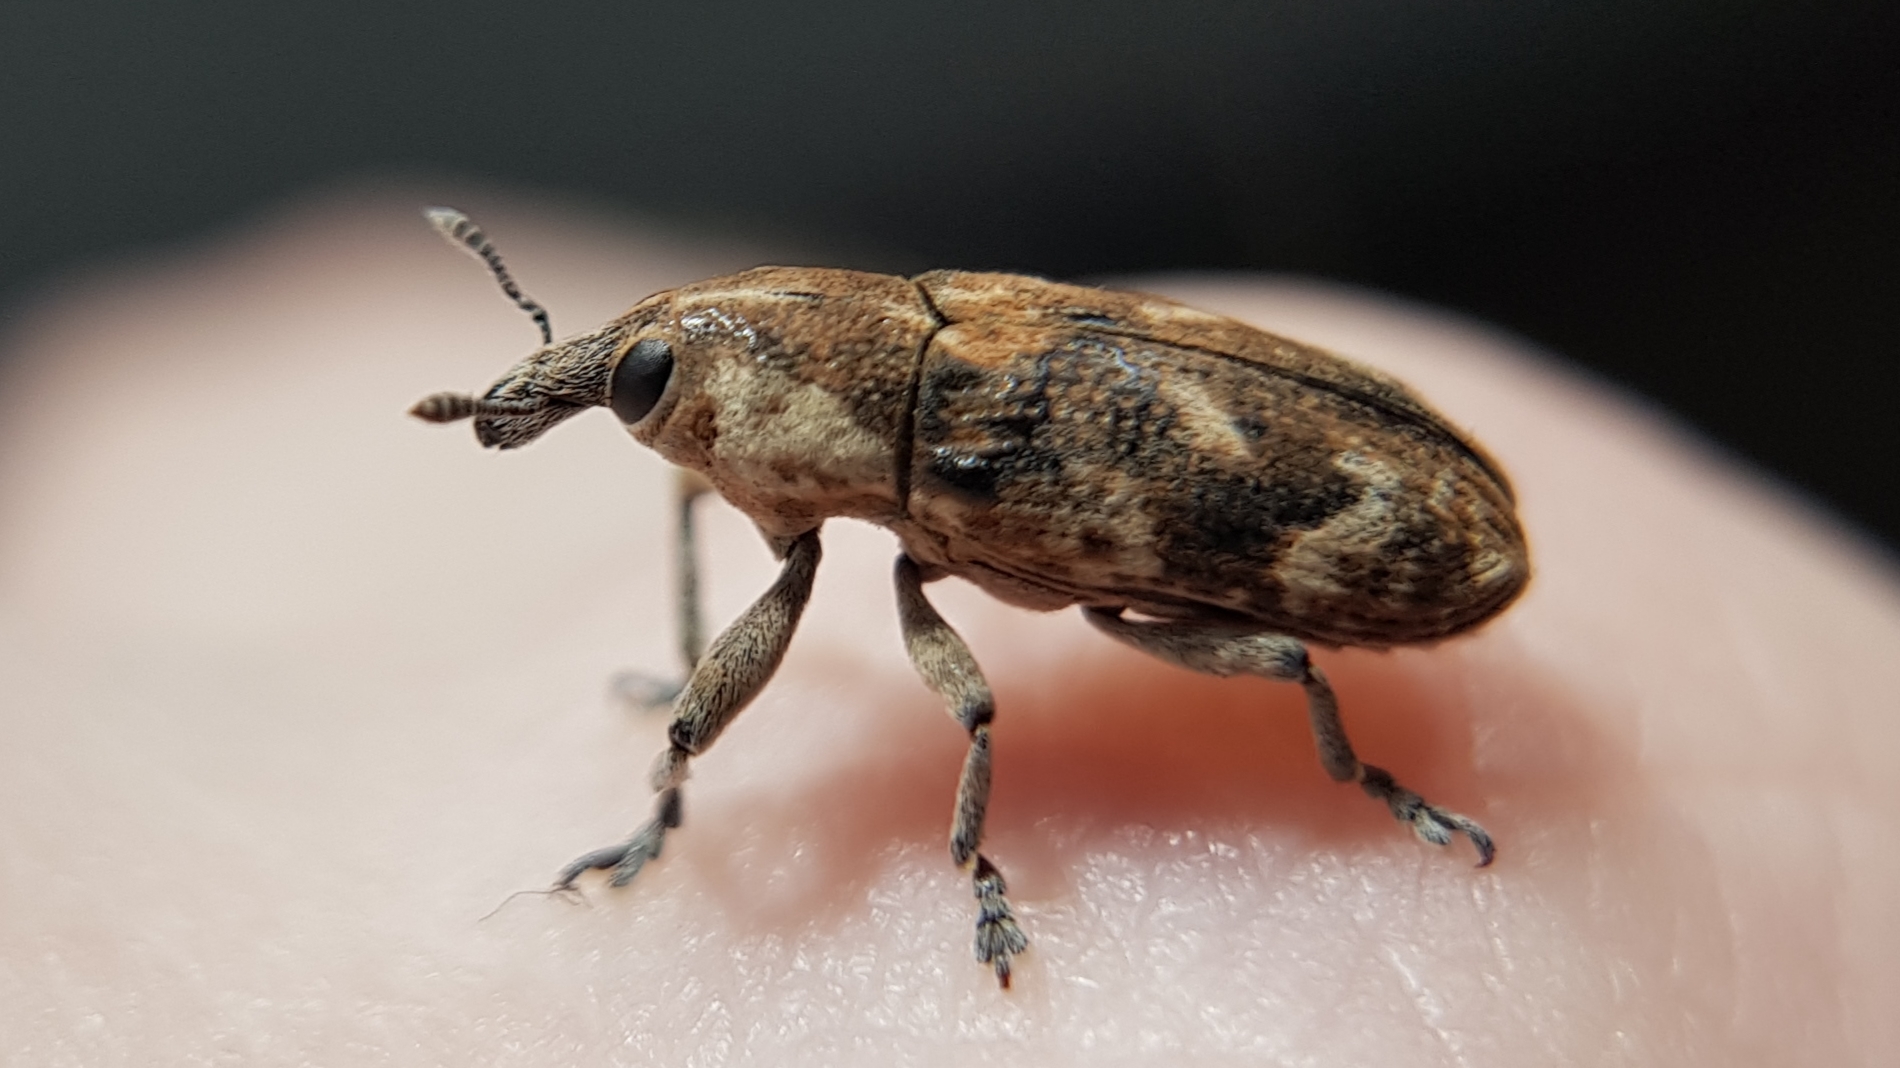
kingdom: Animalia
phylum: Arthropoda
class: Insecta
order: Coleoptera
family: Curculionidae
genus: Hypolixus
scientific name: Hypolixus
